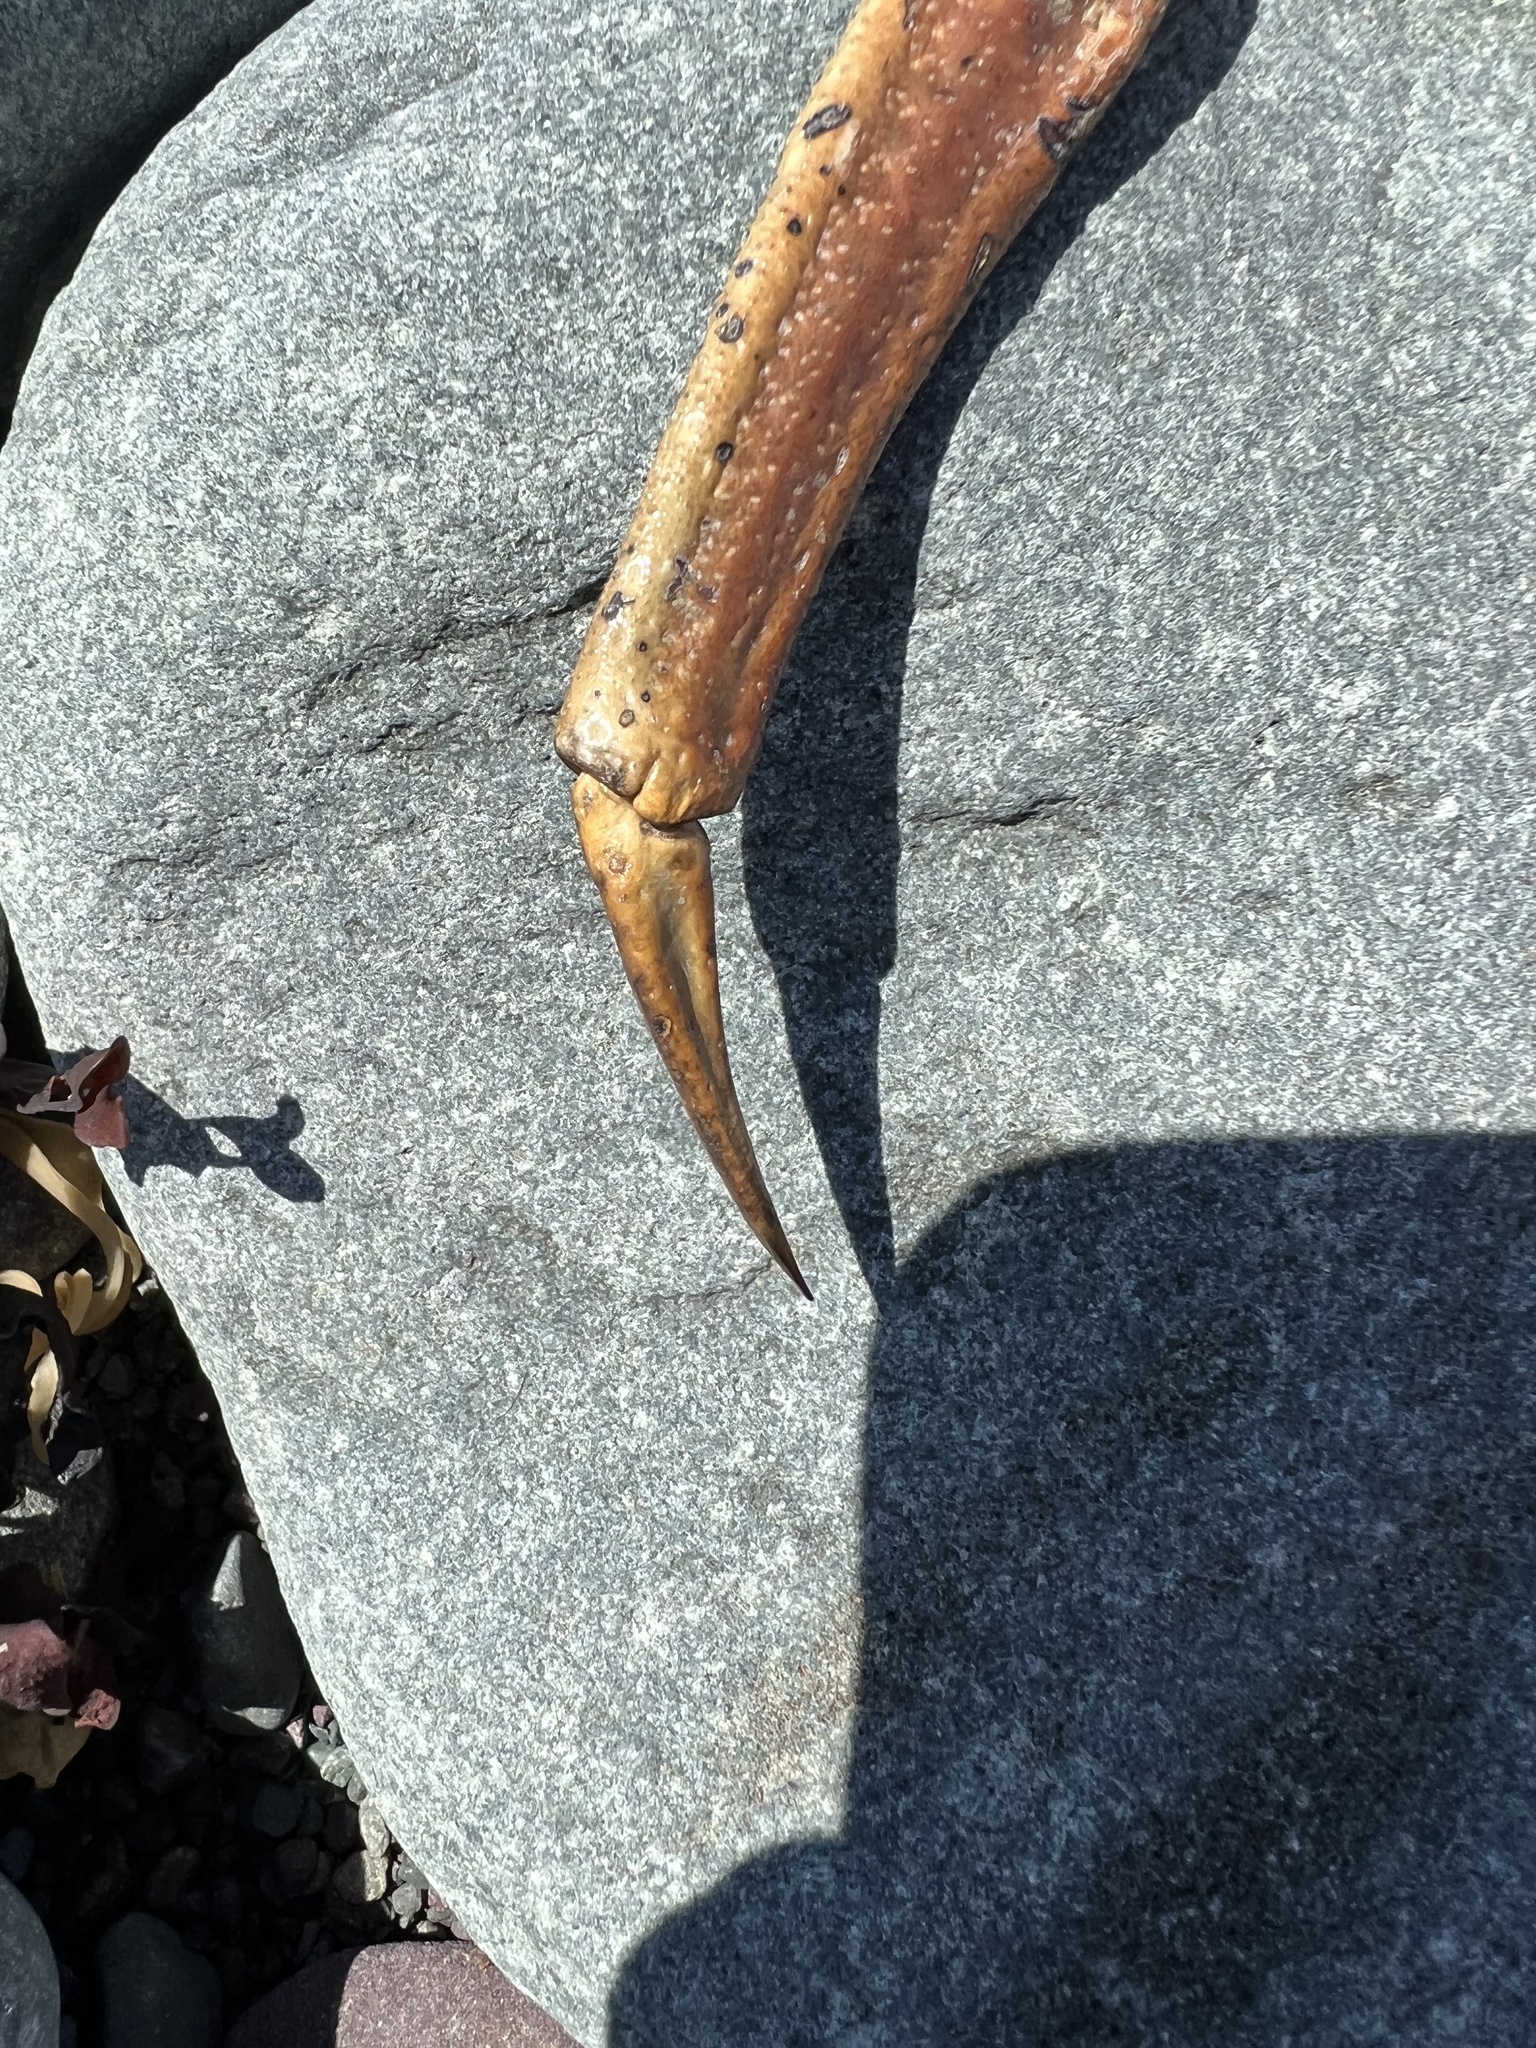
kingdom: Animalia
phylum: Arthropoda
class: Malacostraca
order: Decapoda
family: Oregoniidae
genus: Chionoecetes
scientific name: Chionoecetes opilio
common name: Atlantic snow crab
